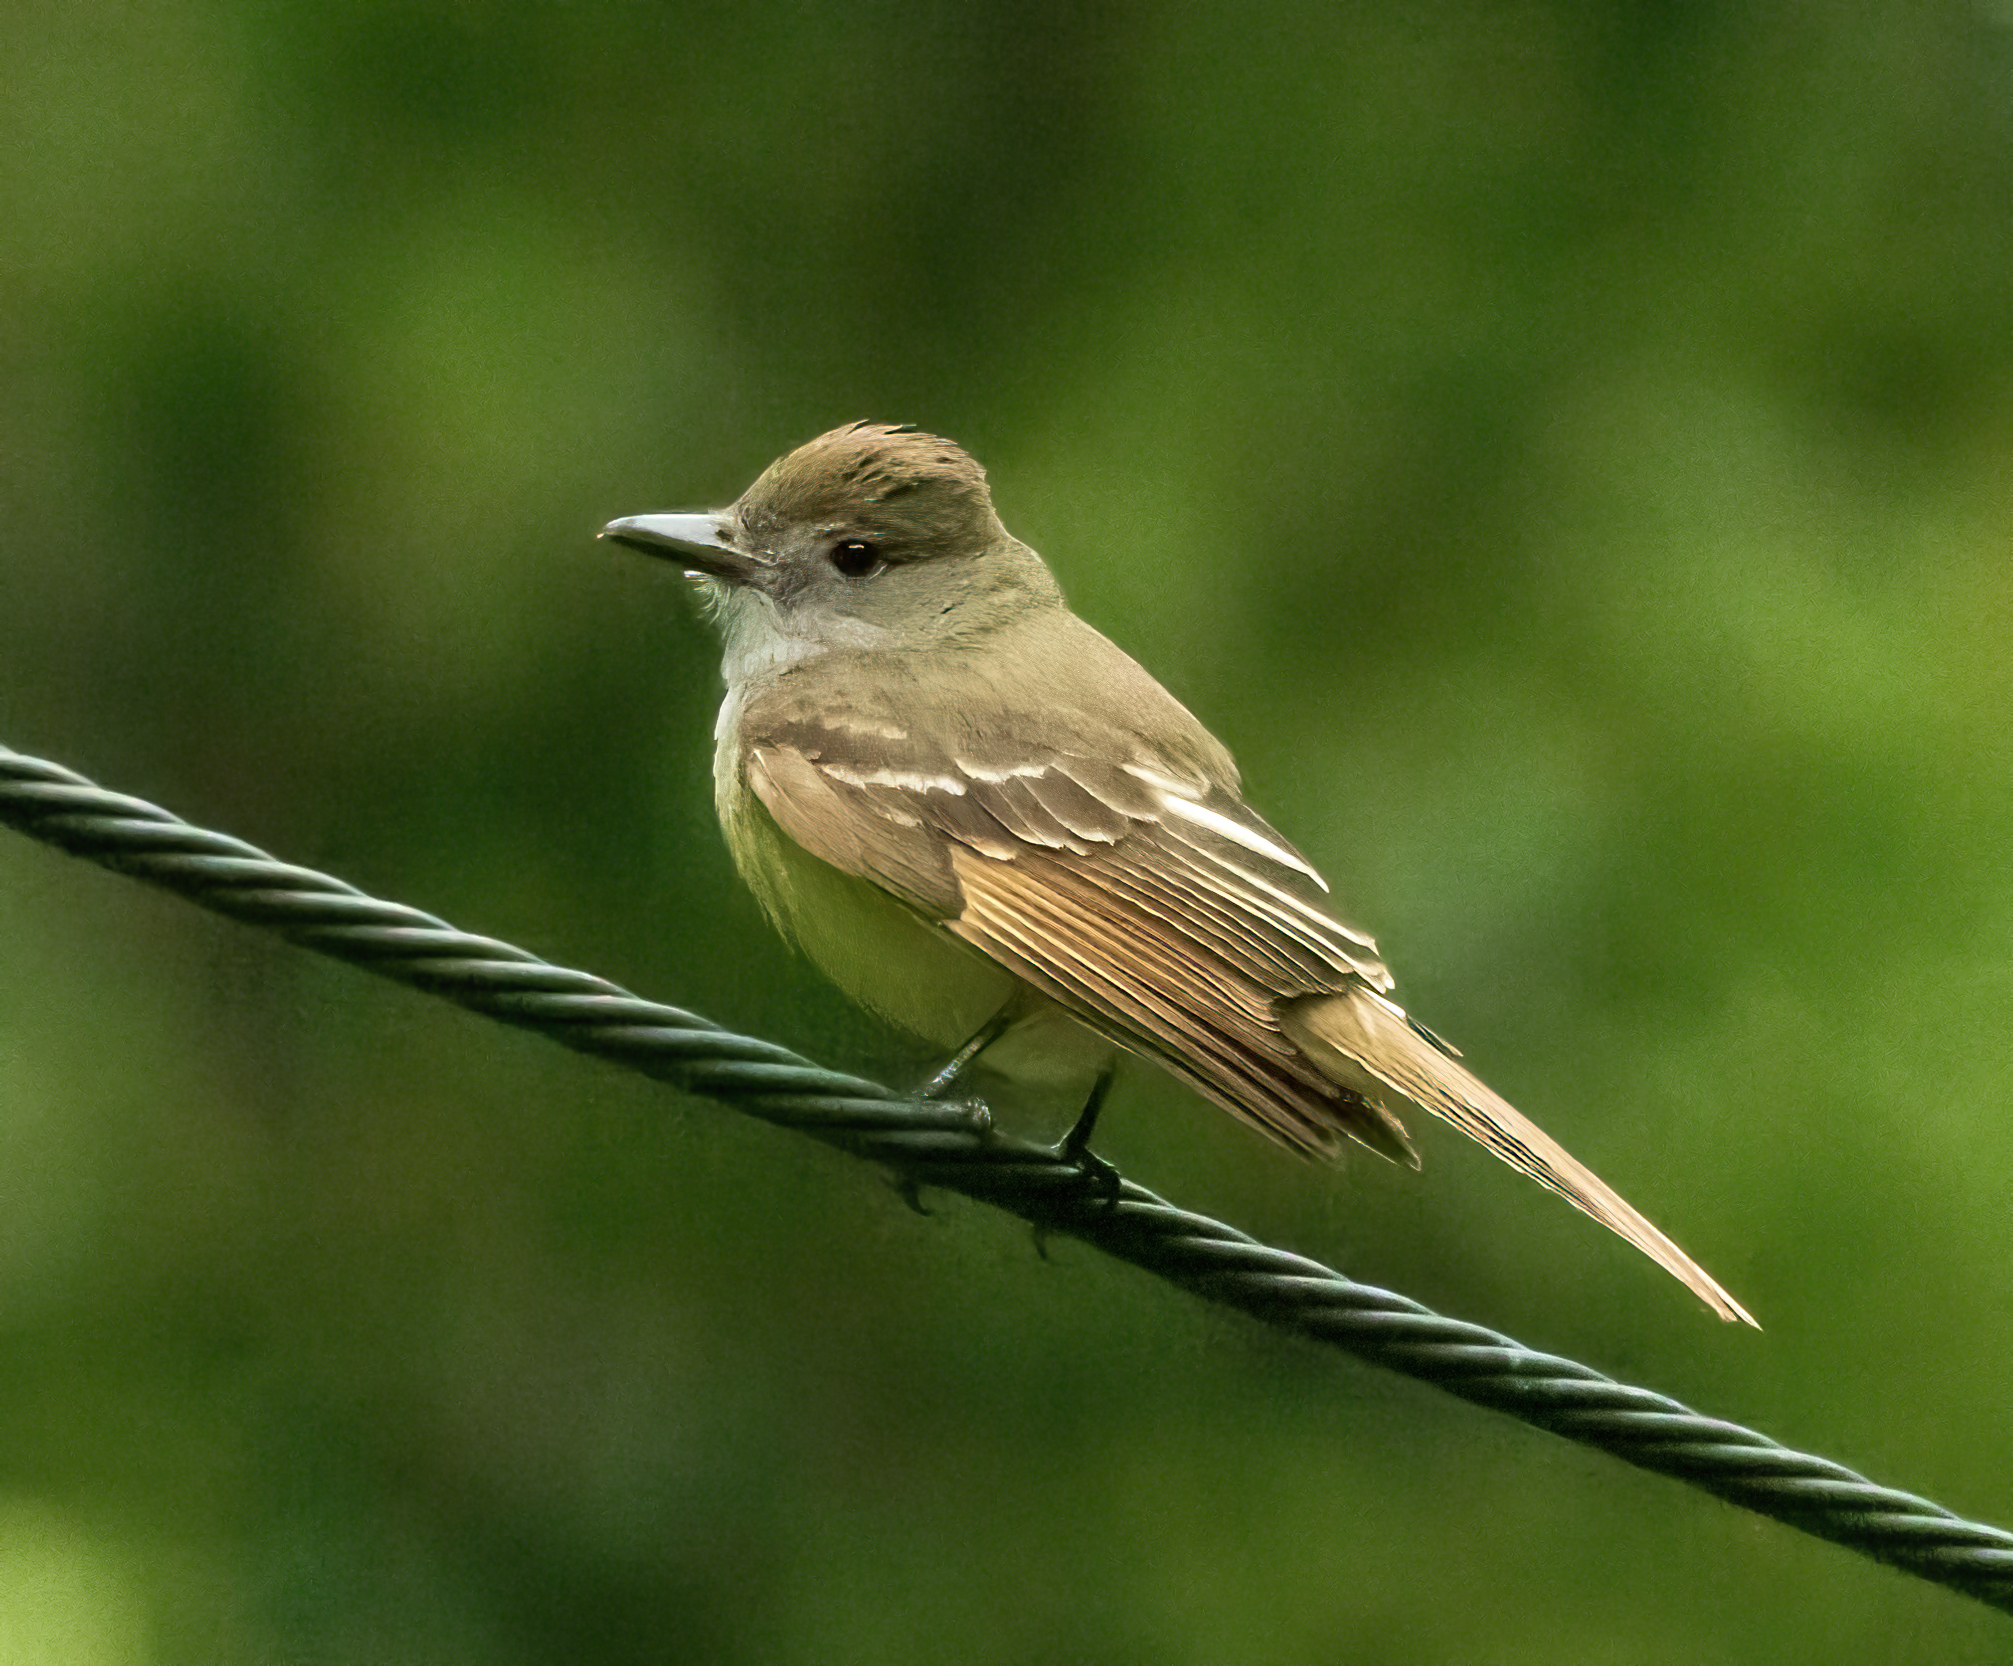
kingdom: Animalia
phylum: Chordata
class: Aves
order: Passeriformes
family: Tyrannidae
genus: Myiarchus
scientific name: Myiarchus crinitus
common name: Great crested flycatcher
